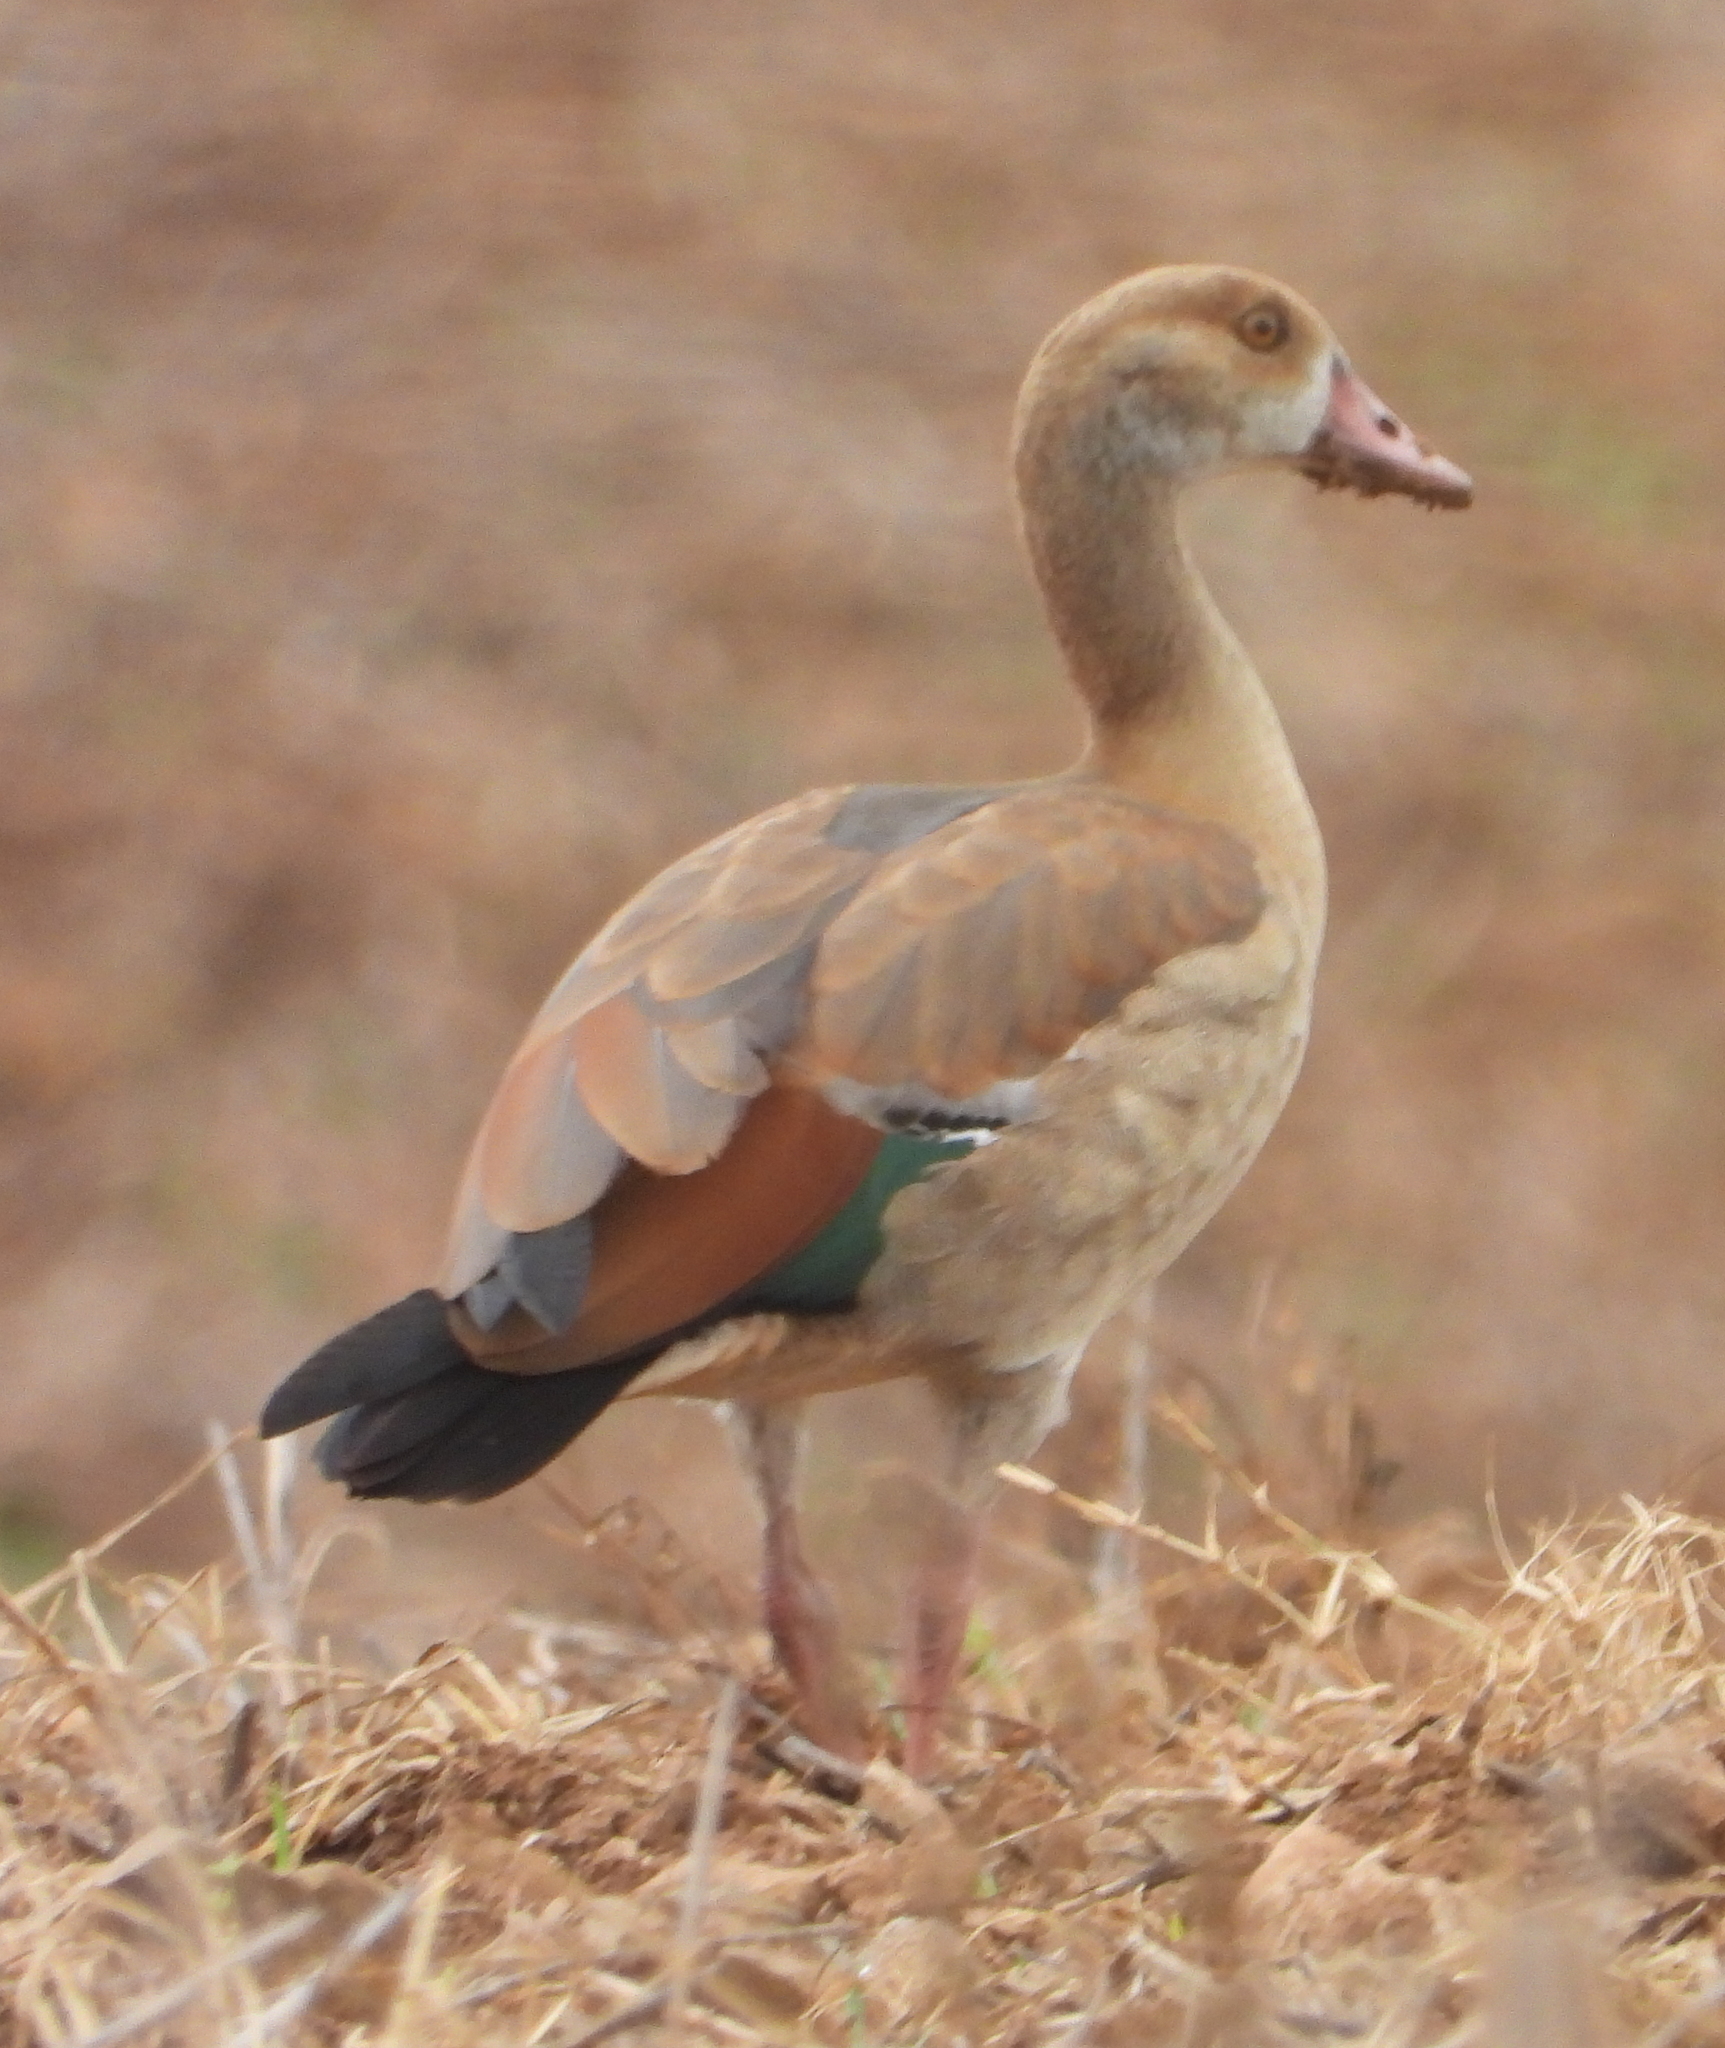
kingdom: Animalia
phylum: Chordata
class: Aves
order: Anseriformes
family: Anatidae
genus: Alopochen
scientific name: Alopochen aegyptiaca
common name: Egyptian goose
